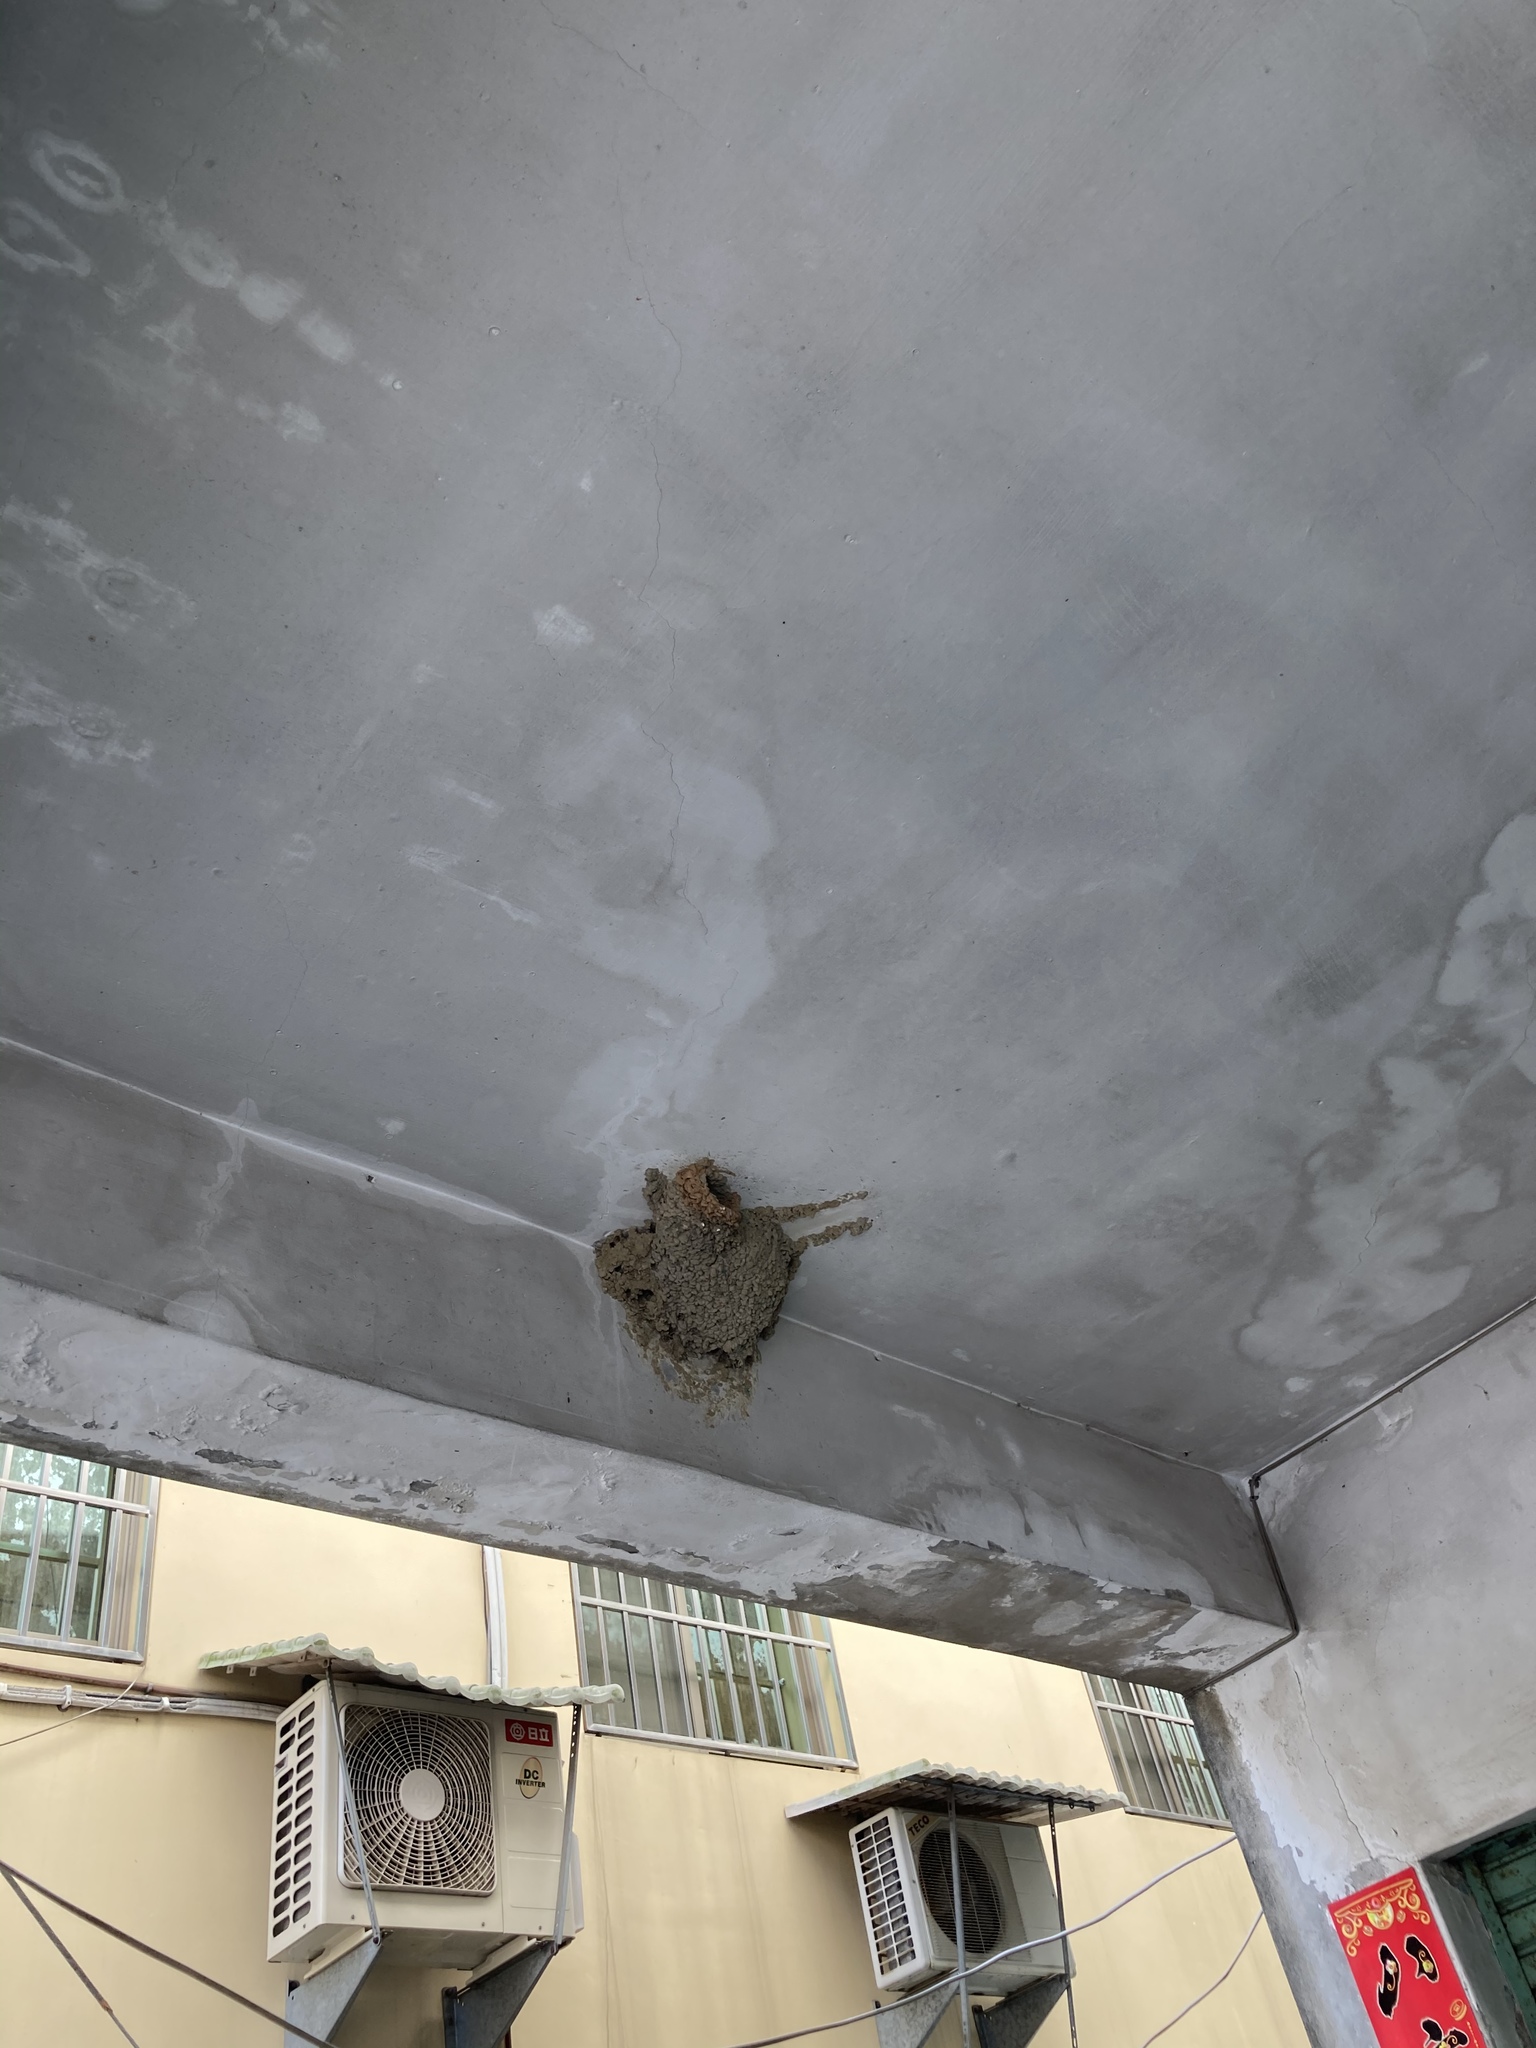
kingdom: Animalia
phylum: Chordata
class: Aves
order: Passeriformes
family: Hirundinidae
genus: Cecropis
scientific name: Cecropis striolata
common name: Striated swallow
